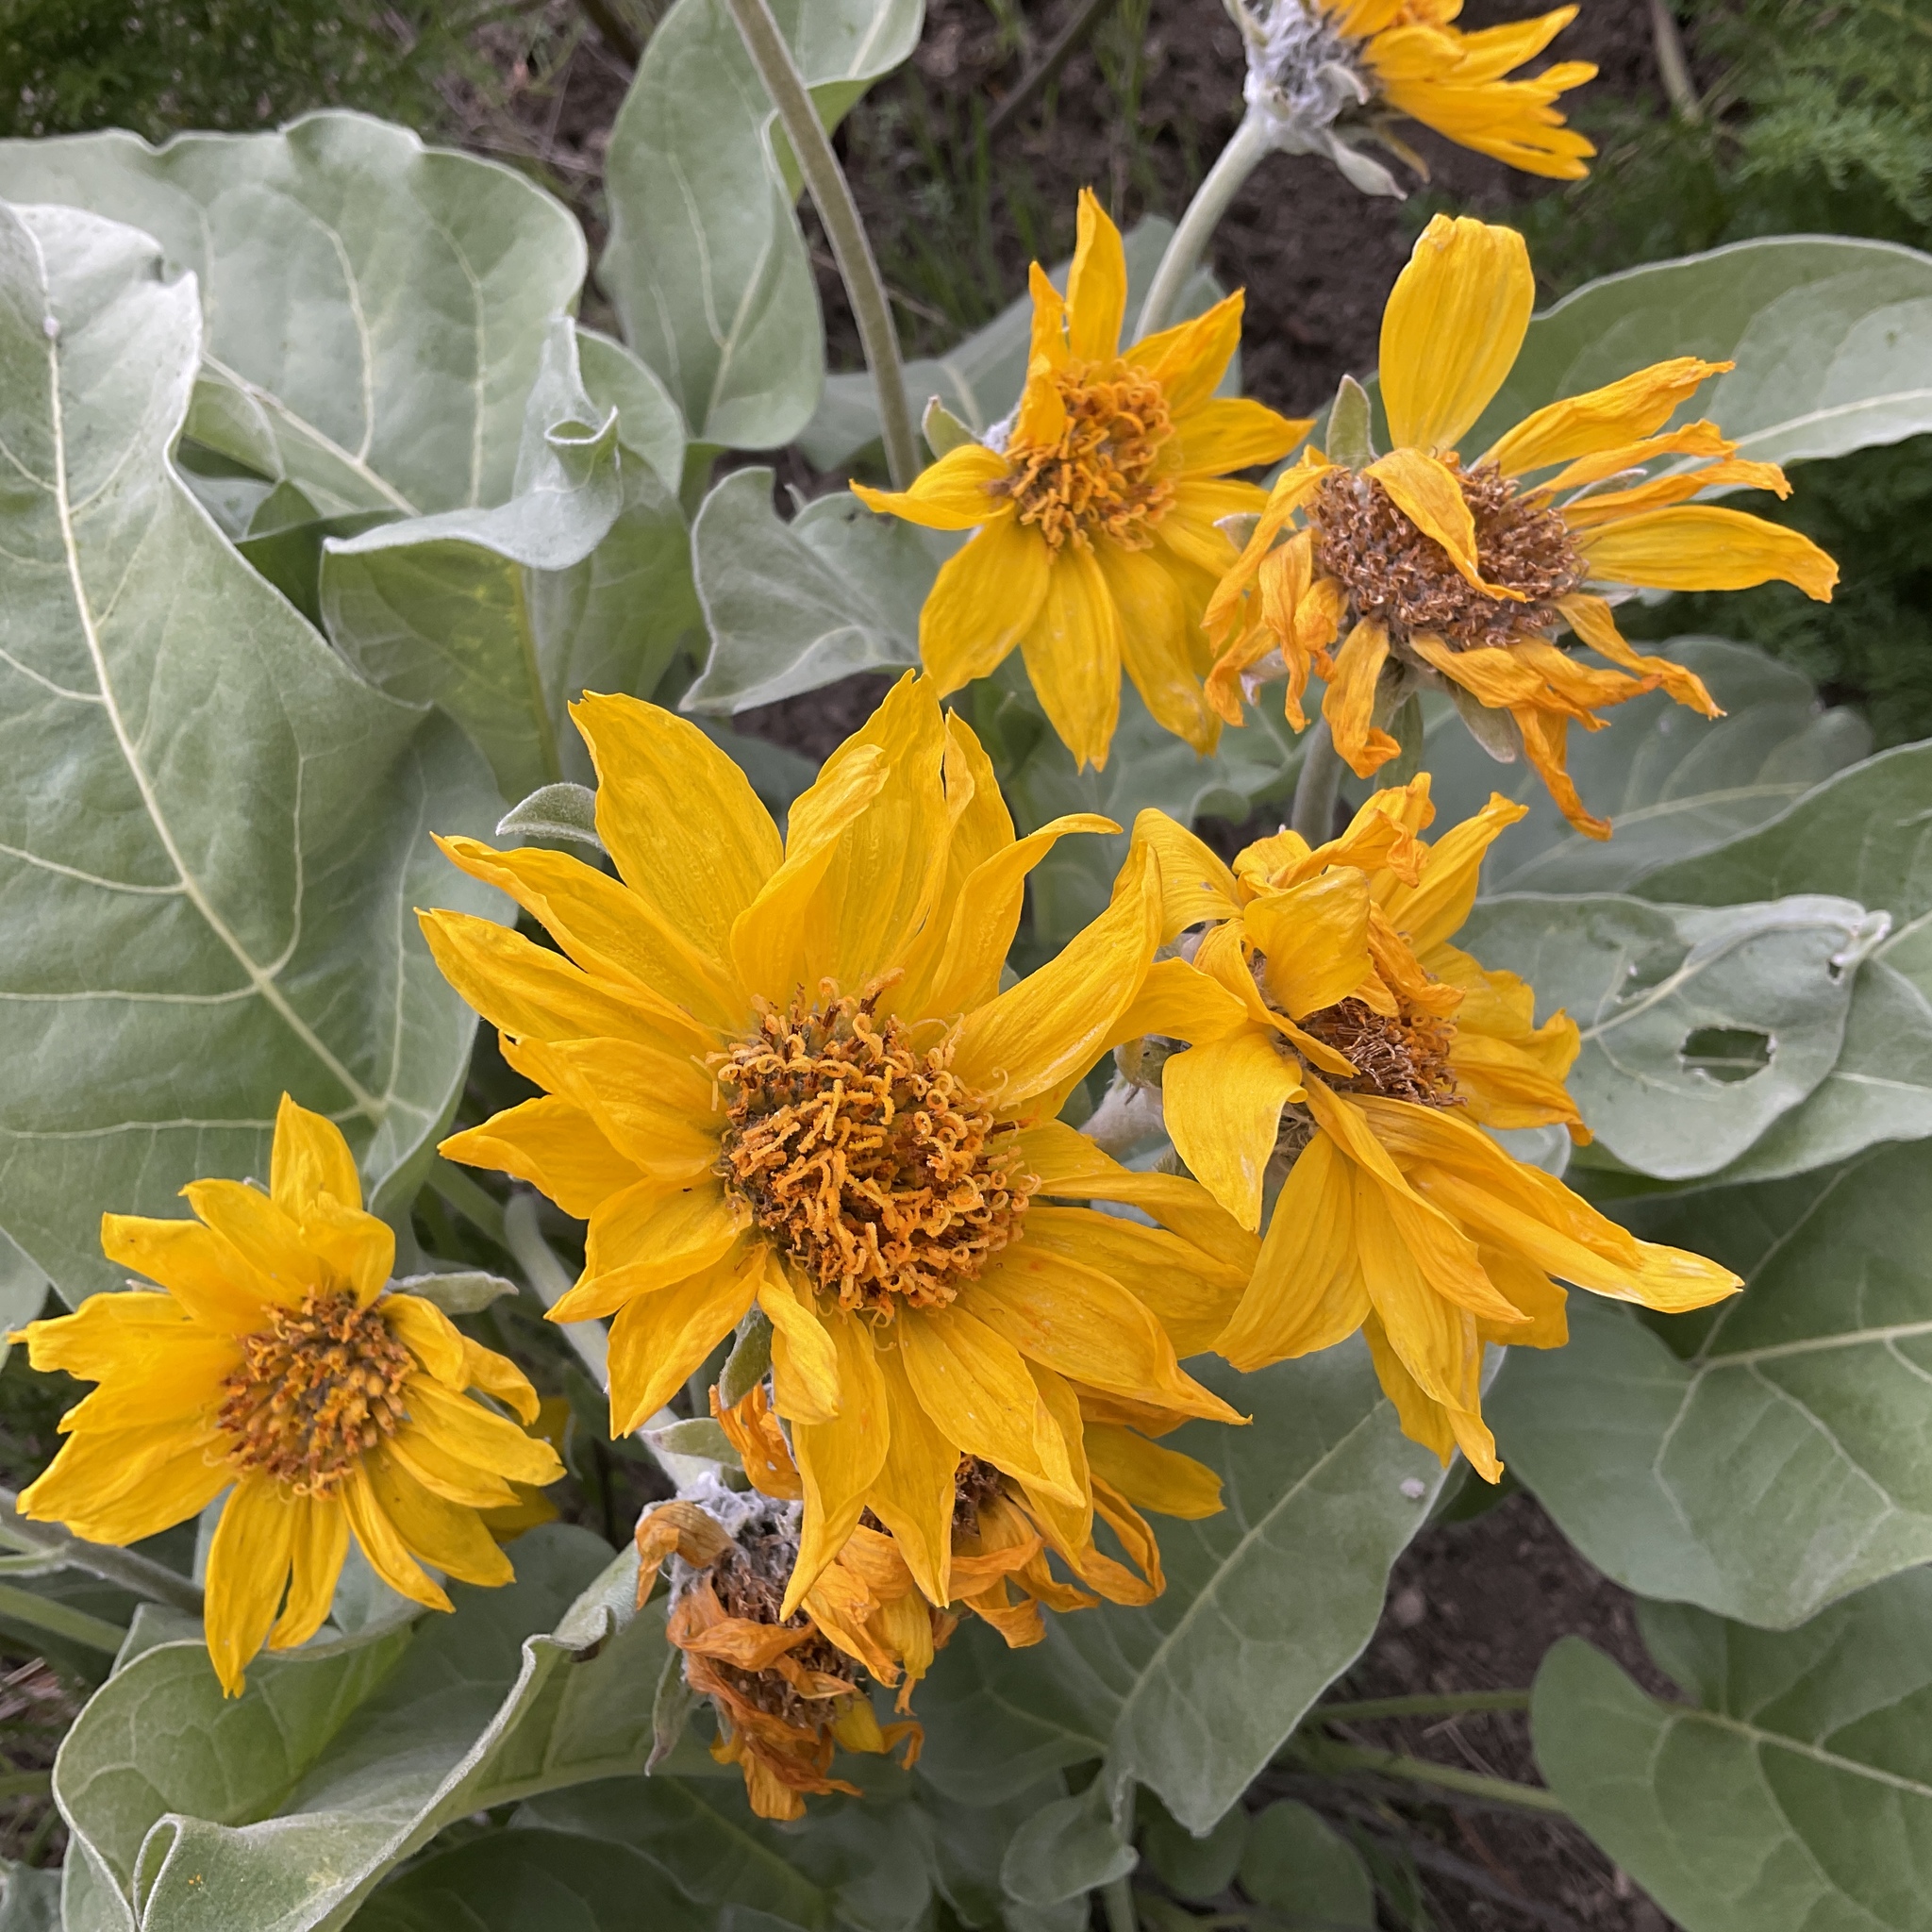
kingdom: Plantae
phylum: Tracheophyta
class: Magnoliopsida
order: Asterales
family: Asteraceae
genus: Wyethia
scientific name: Wyethia sagittata
